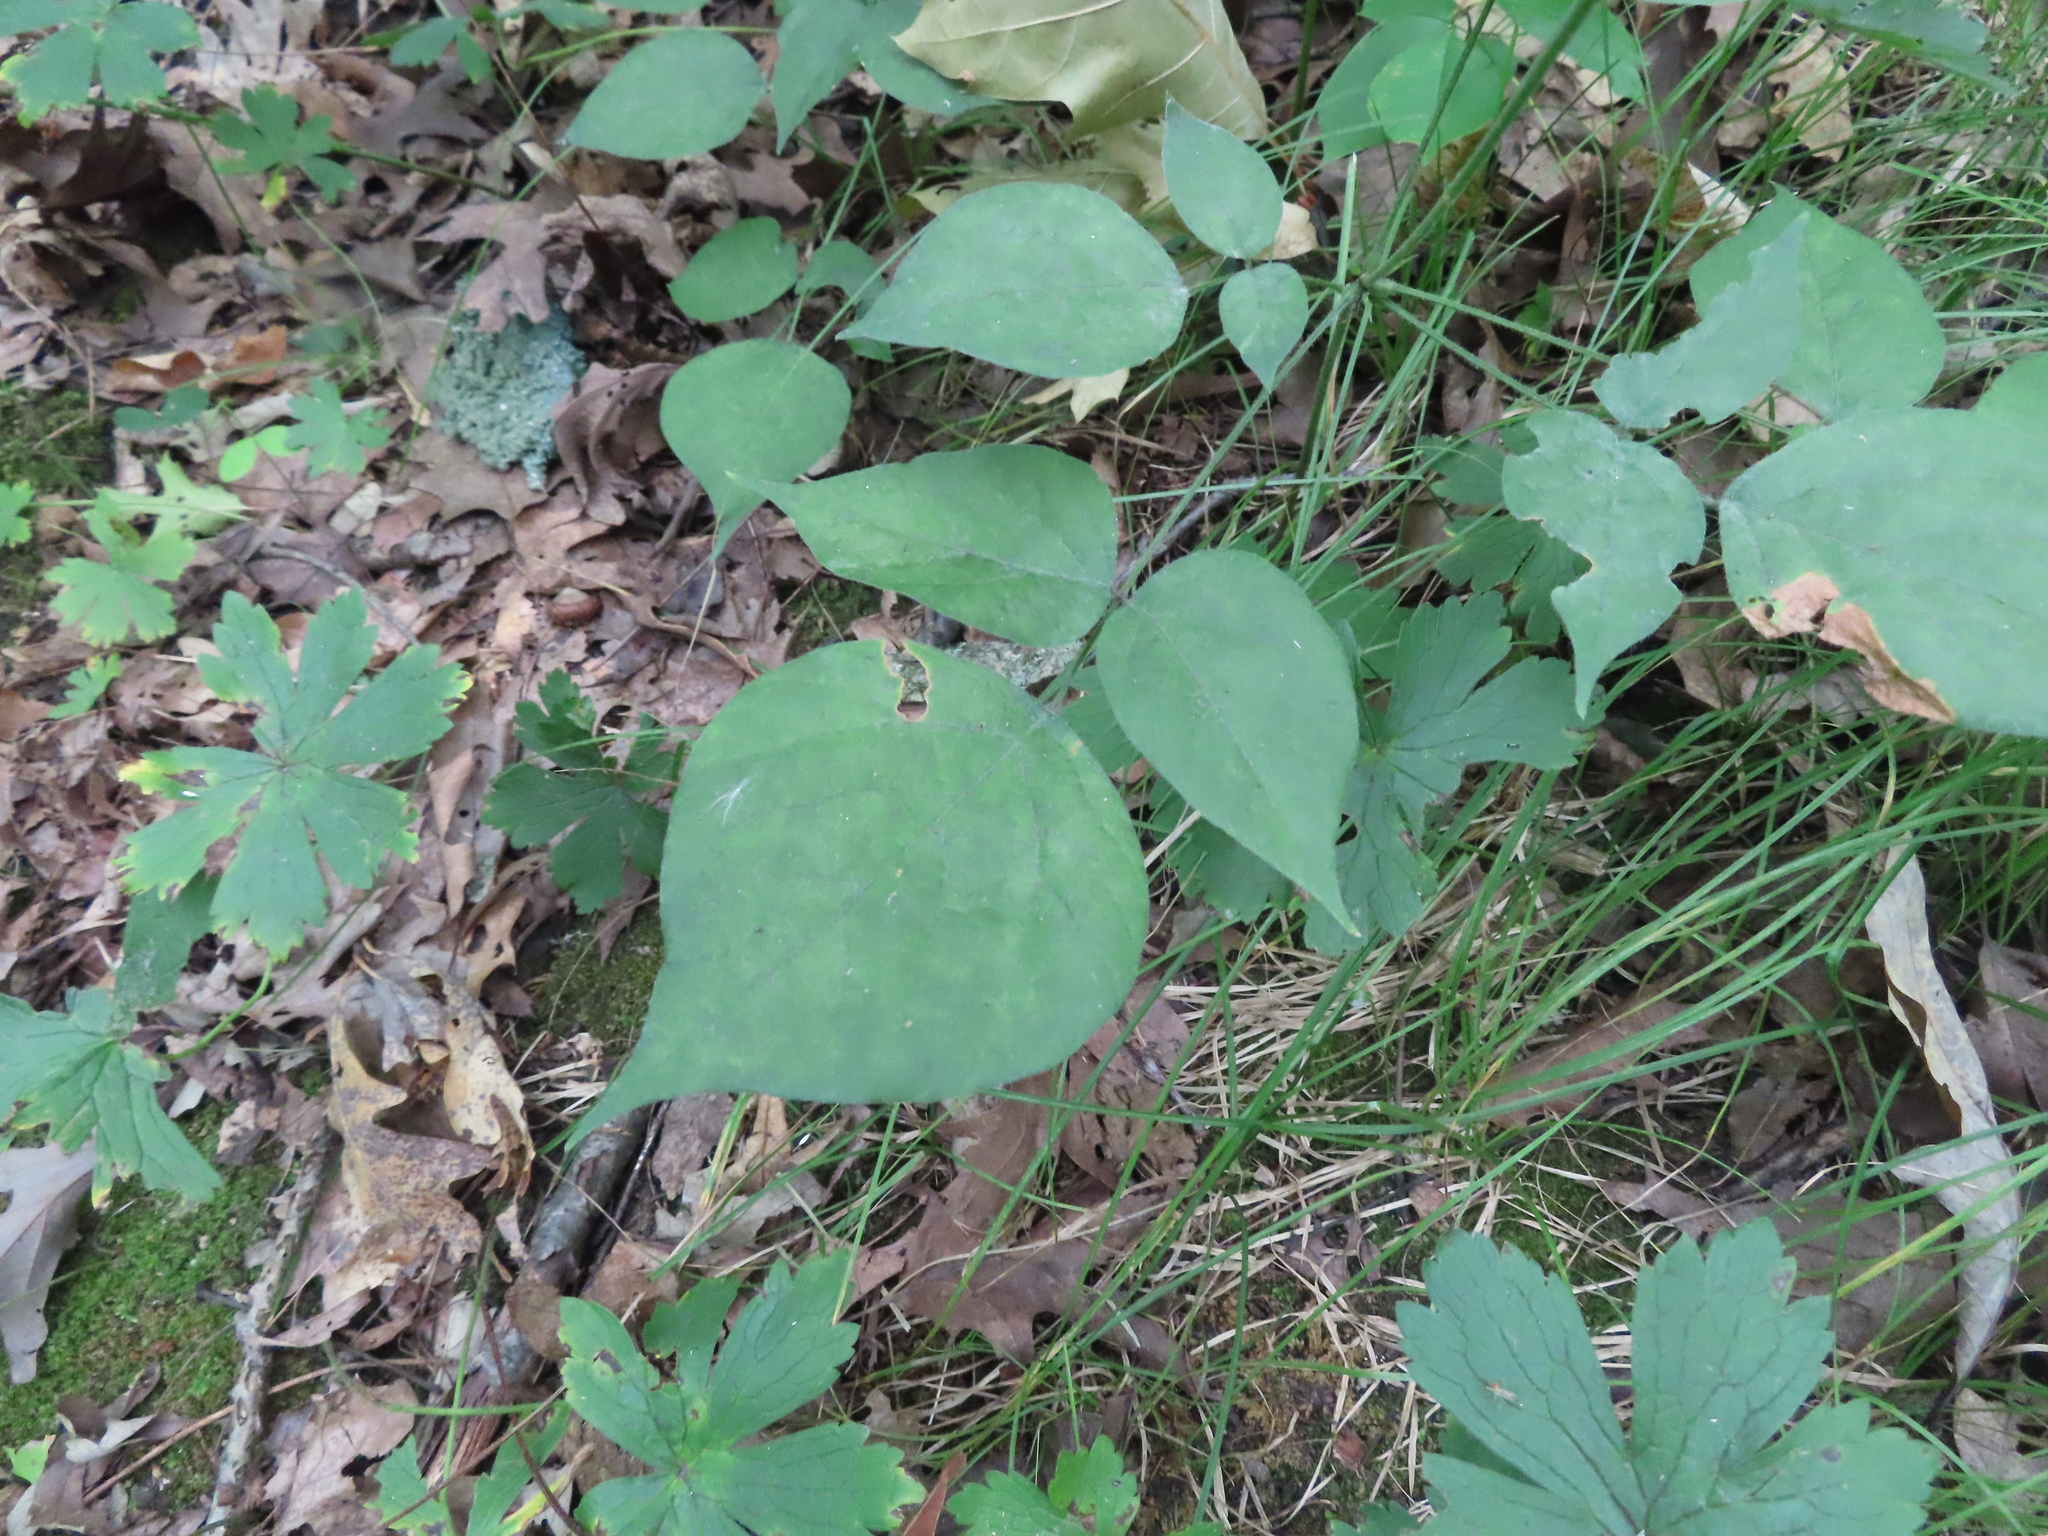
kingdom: Plantae
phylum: Tracheophyta
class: Magnoliopsida
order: Fabales
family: Fabaceae
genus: Hylodesmum
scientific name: Hylodesmum glutinosum
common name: Clustered-leaved tick-trefoil
